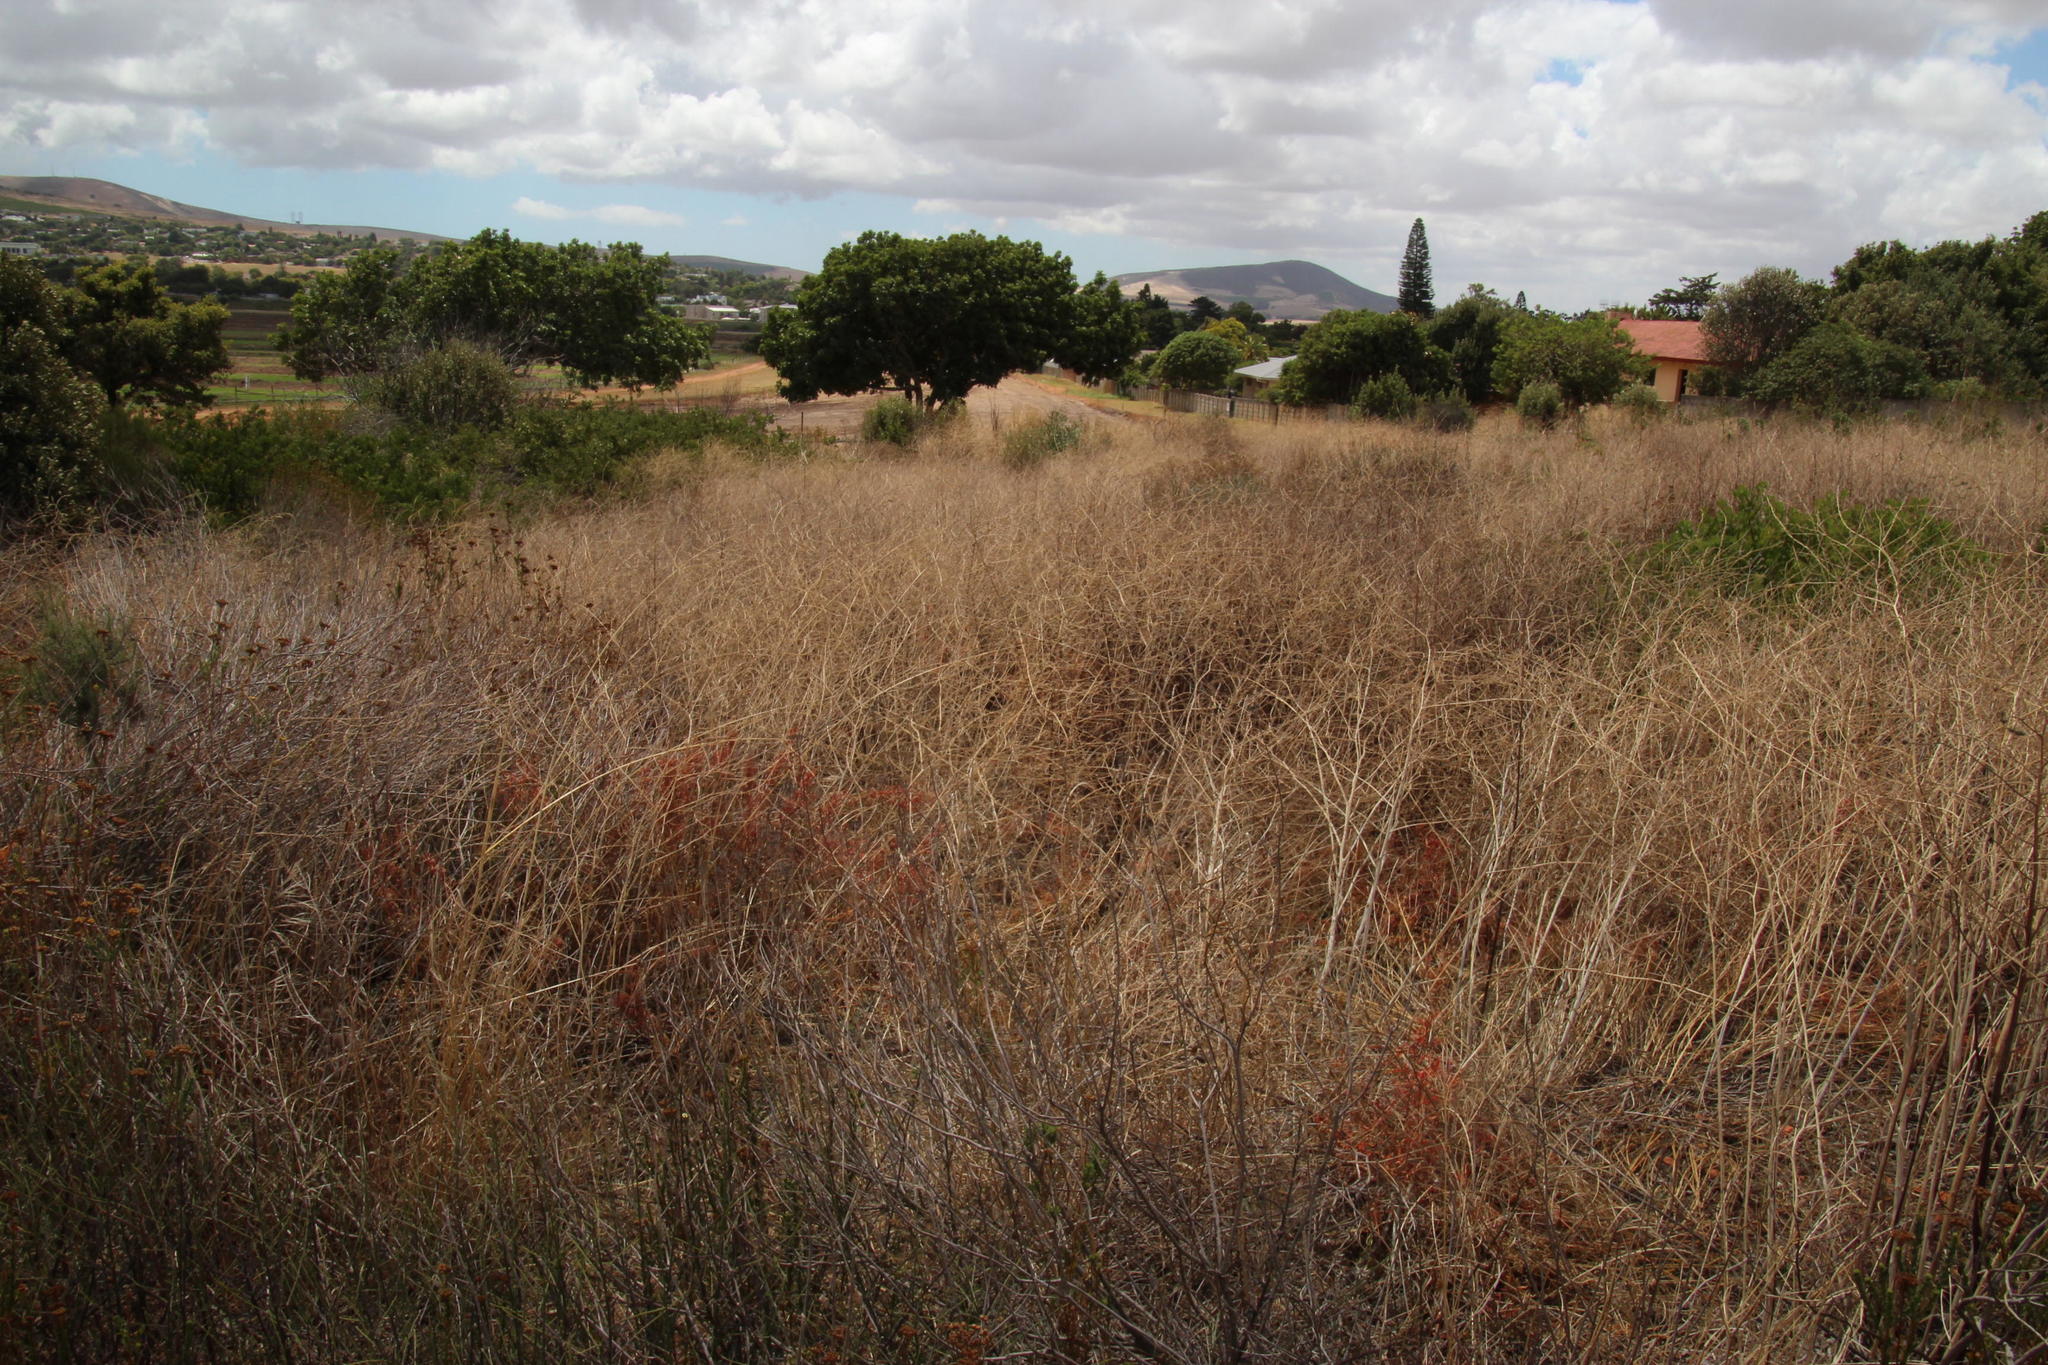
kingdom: Plantae
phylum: Tracheophyta
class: Magnoliopsida
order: Brassicales
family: Brassicaceae
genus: Rapistrum
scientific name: Rapistrum rugosum
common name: Annual bastardcabbage
